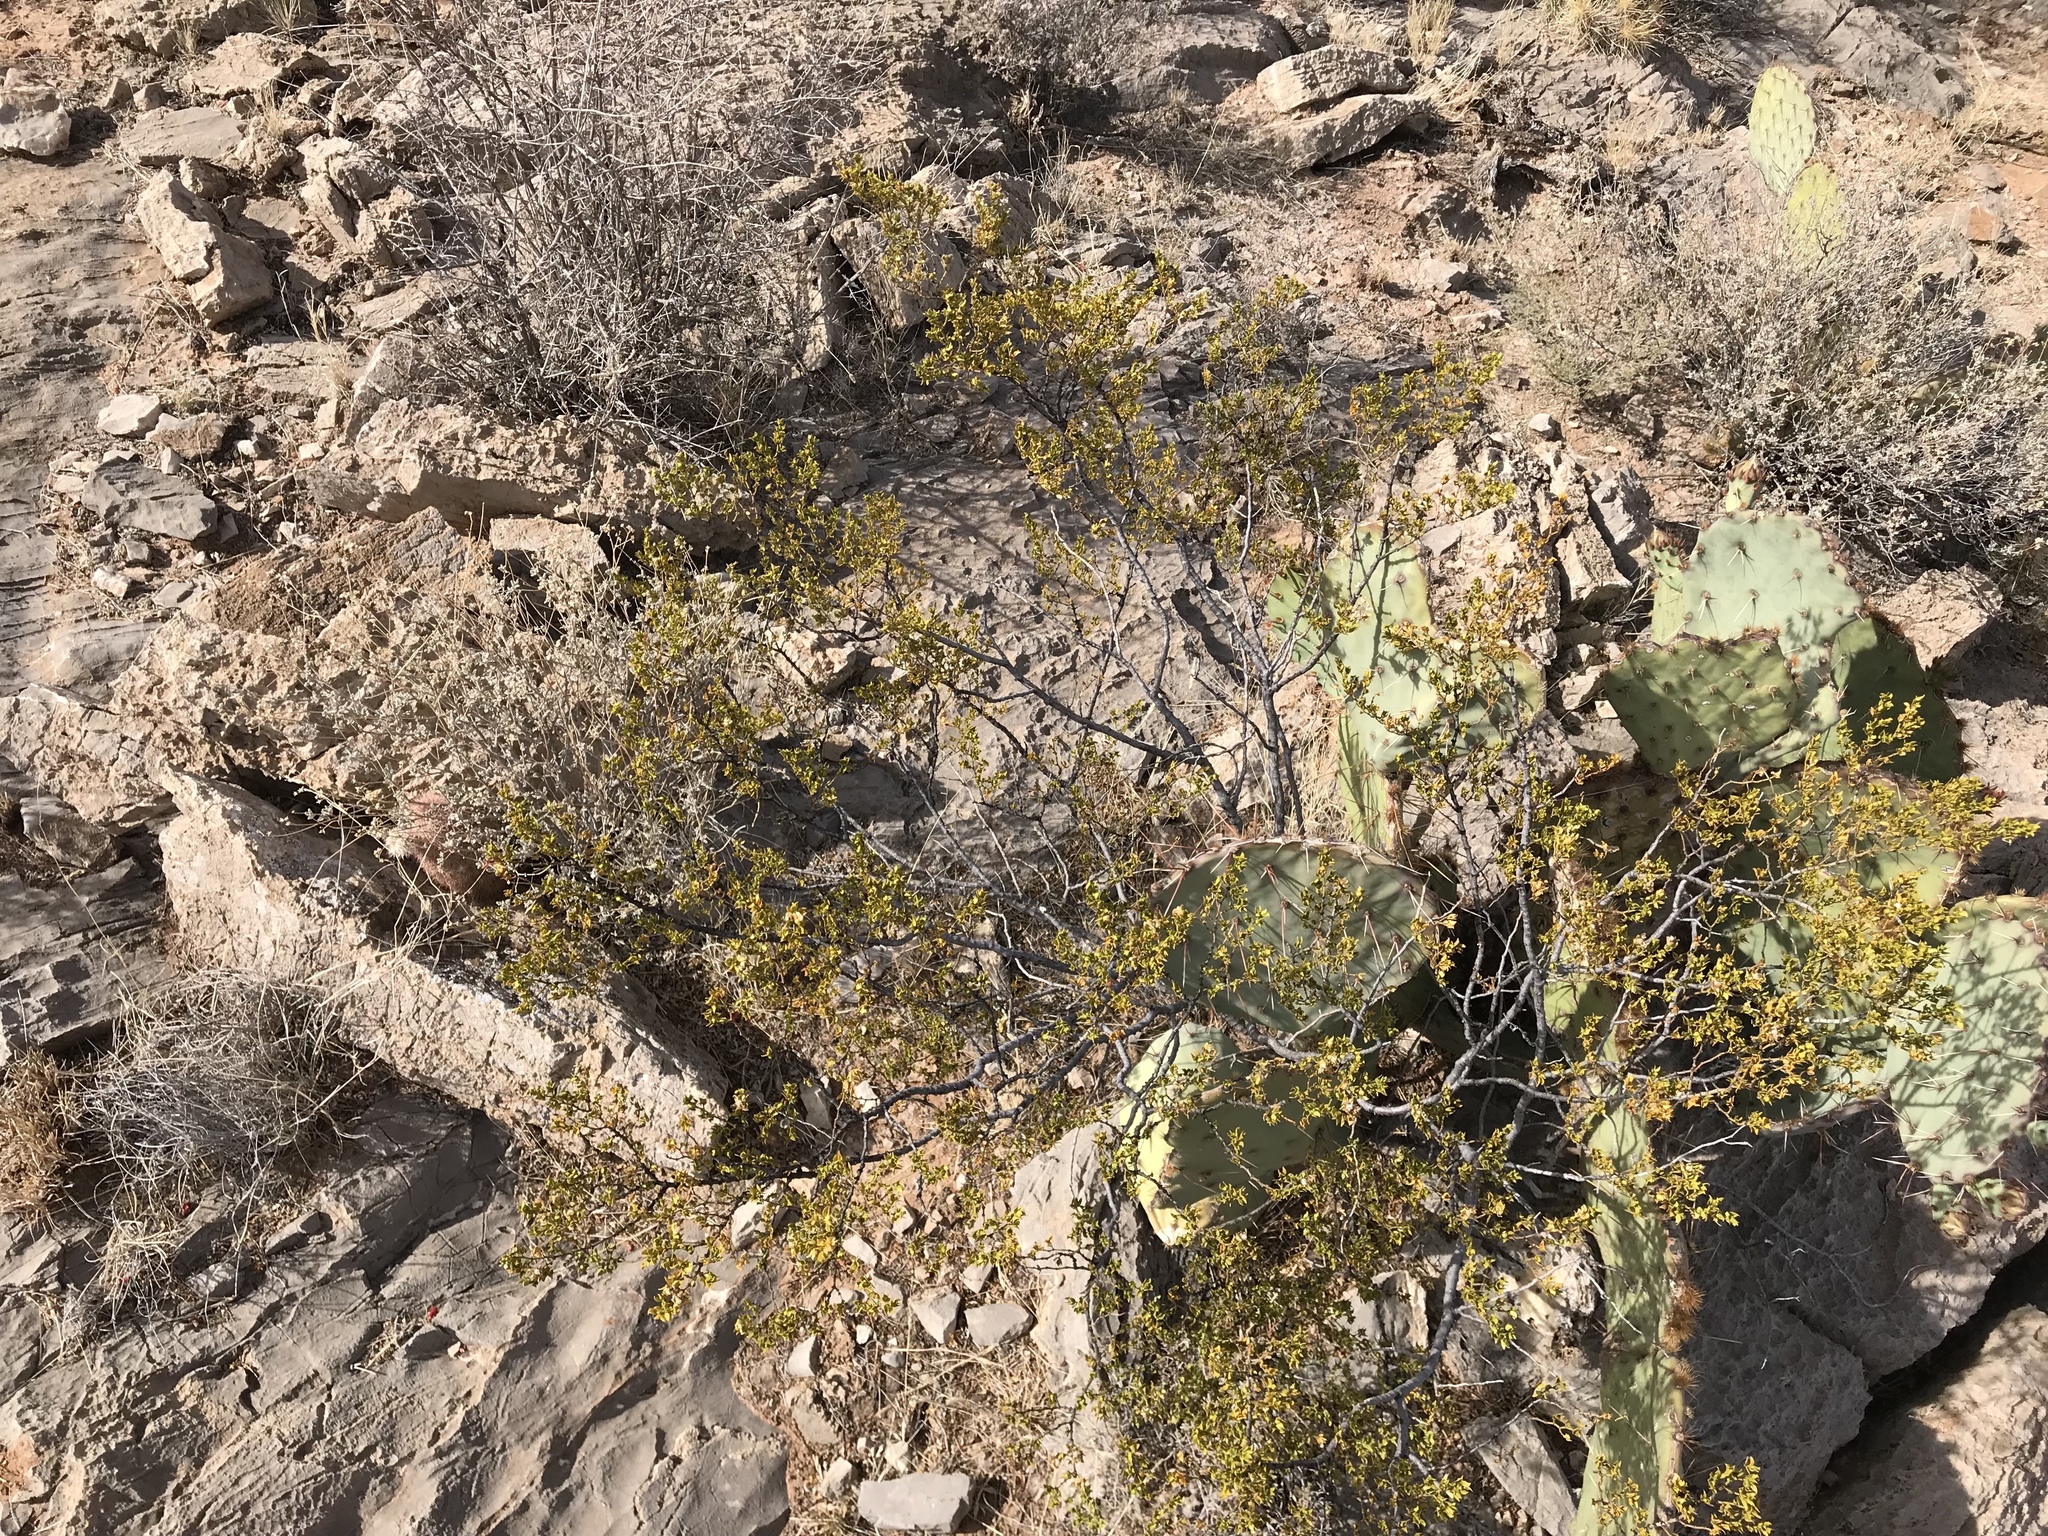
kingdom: Plantae
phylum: Tracheophyta
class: Magnoliopsida
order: Zygophyllales
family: Zygophyllaceae
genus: Larrea
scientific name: Larrea tridentata
